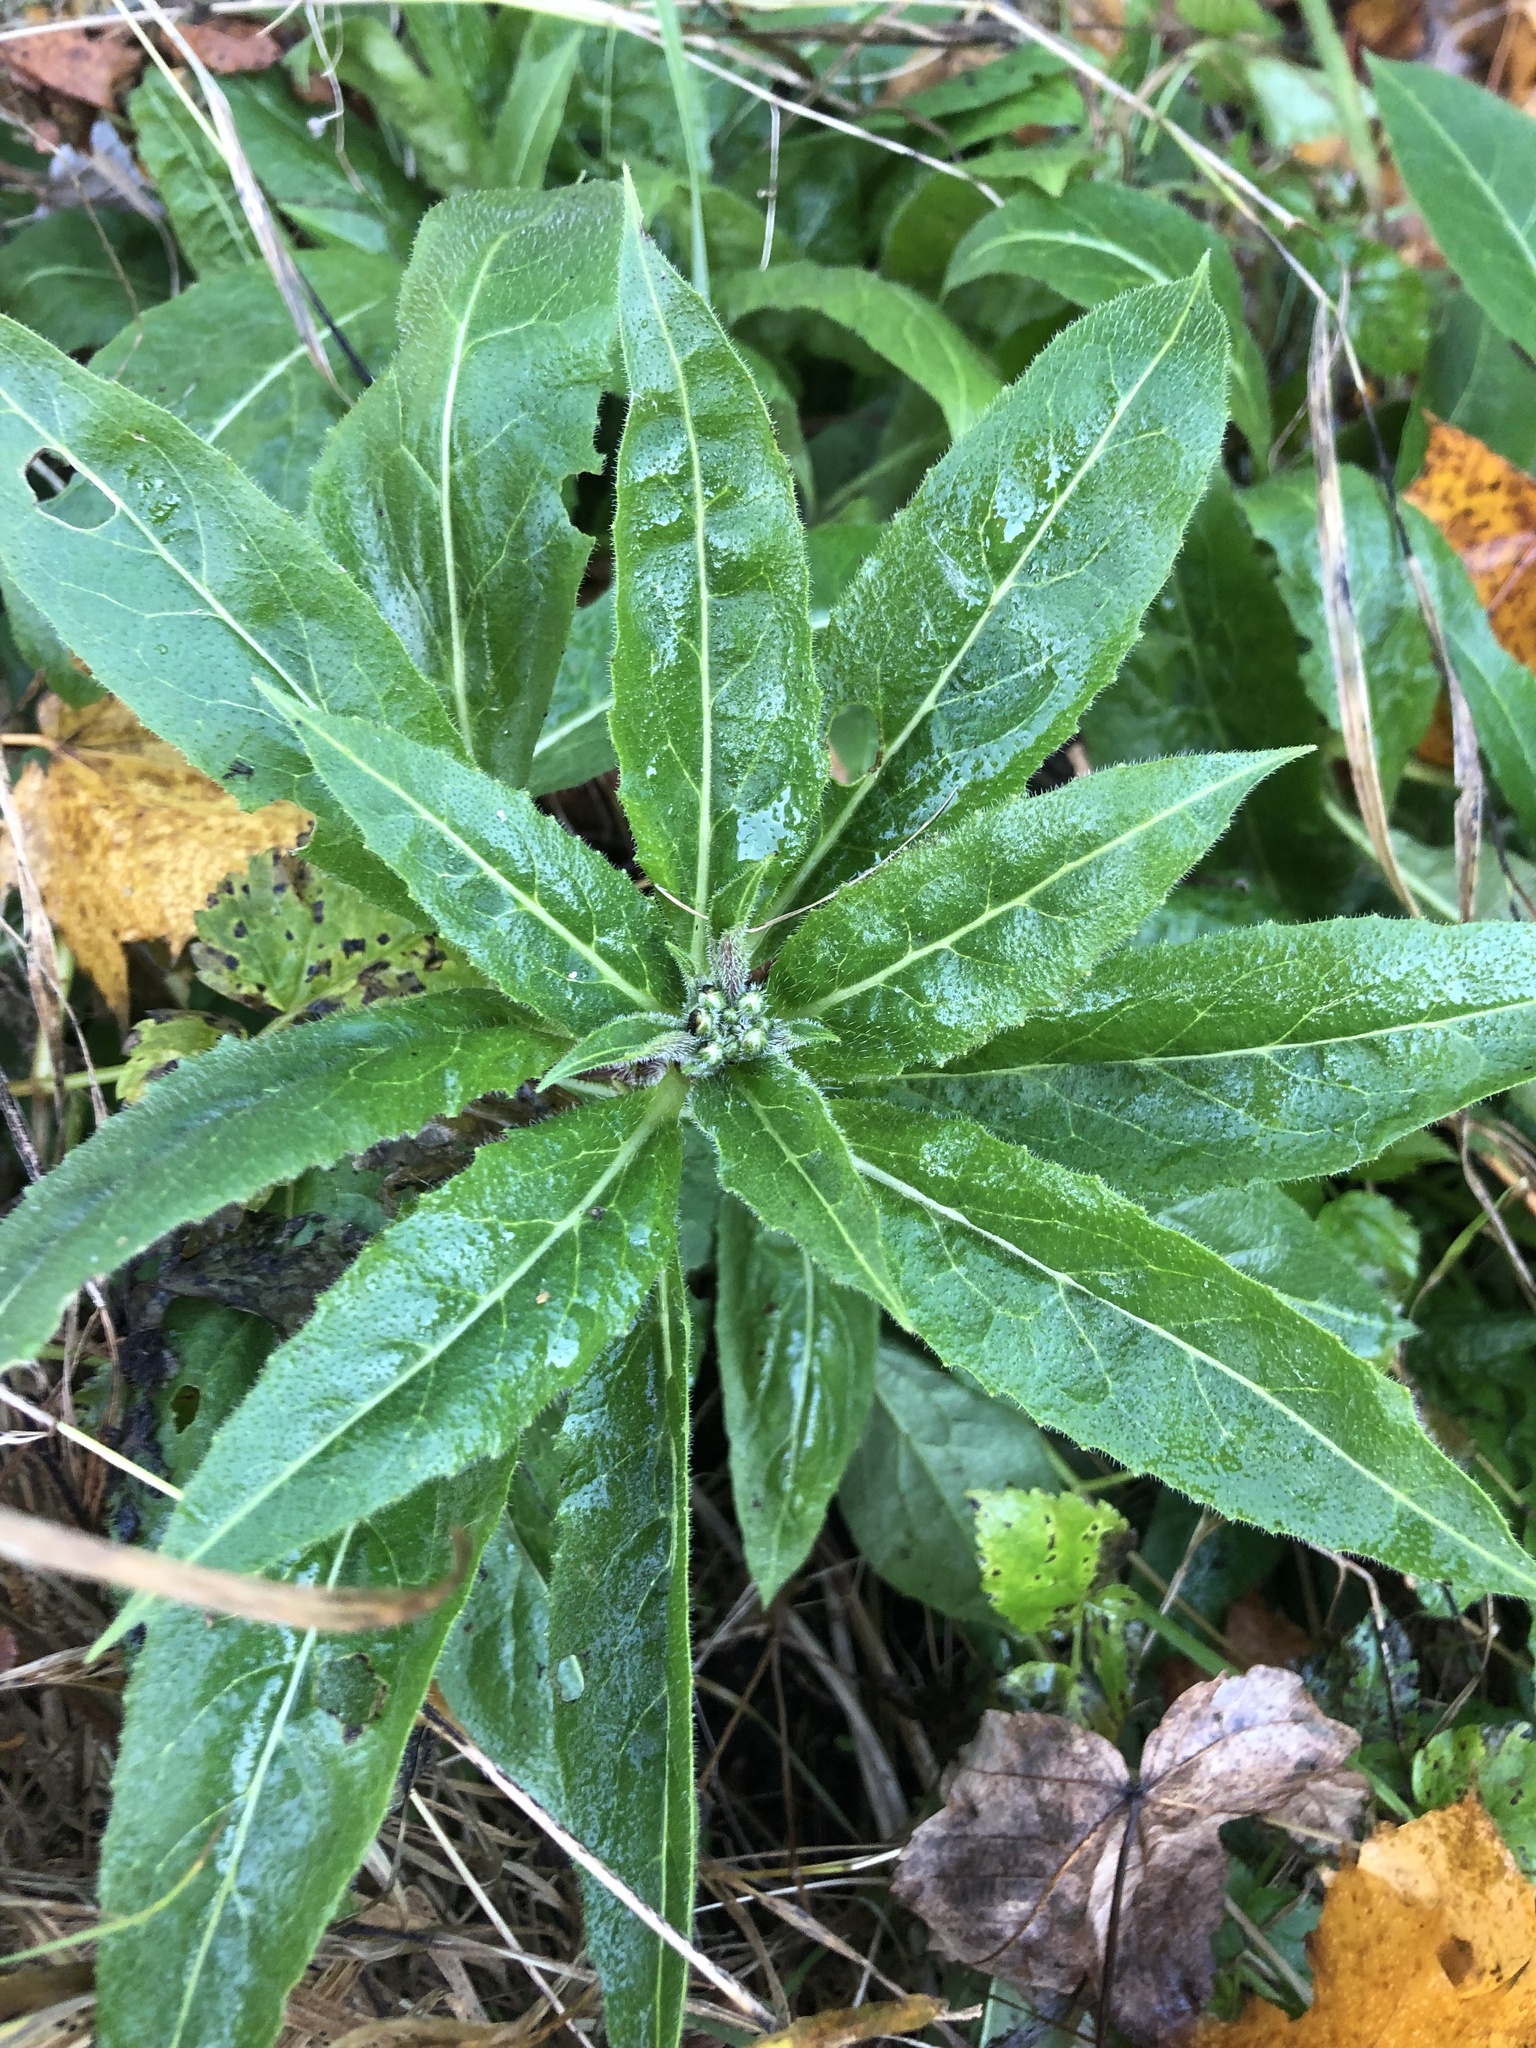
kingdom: Plantae
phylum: Tracheophyta
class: Magnoliopsida
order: Brassicales
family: Brassicaceae
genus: Hesperis
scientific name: Hesperis matronalis
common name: Dame's-violet
